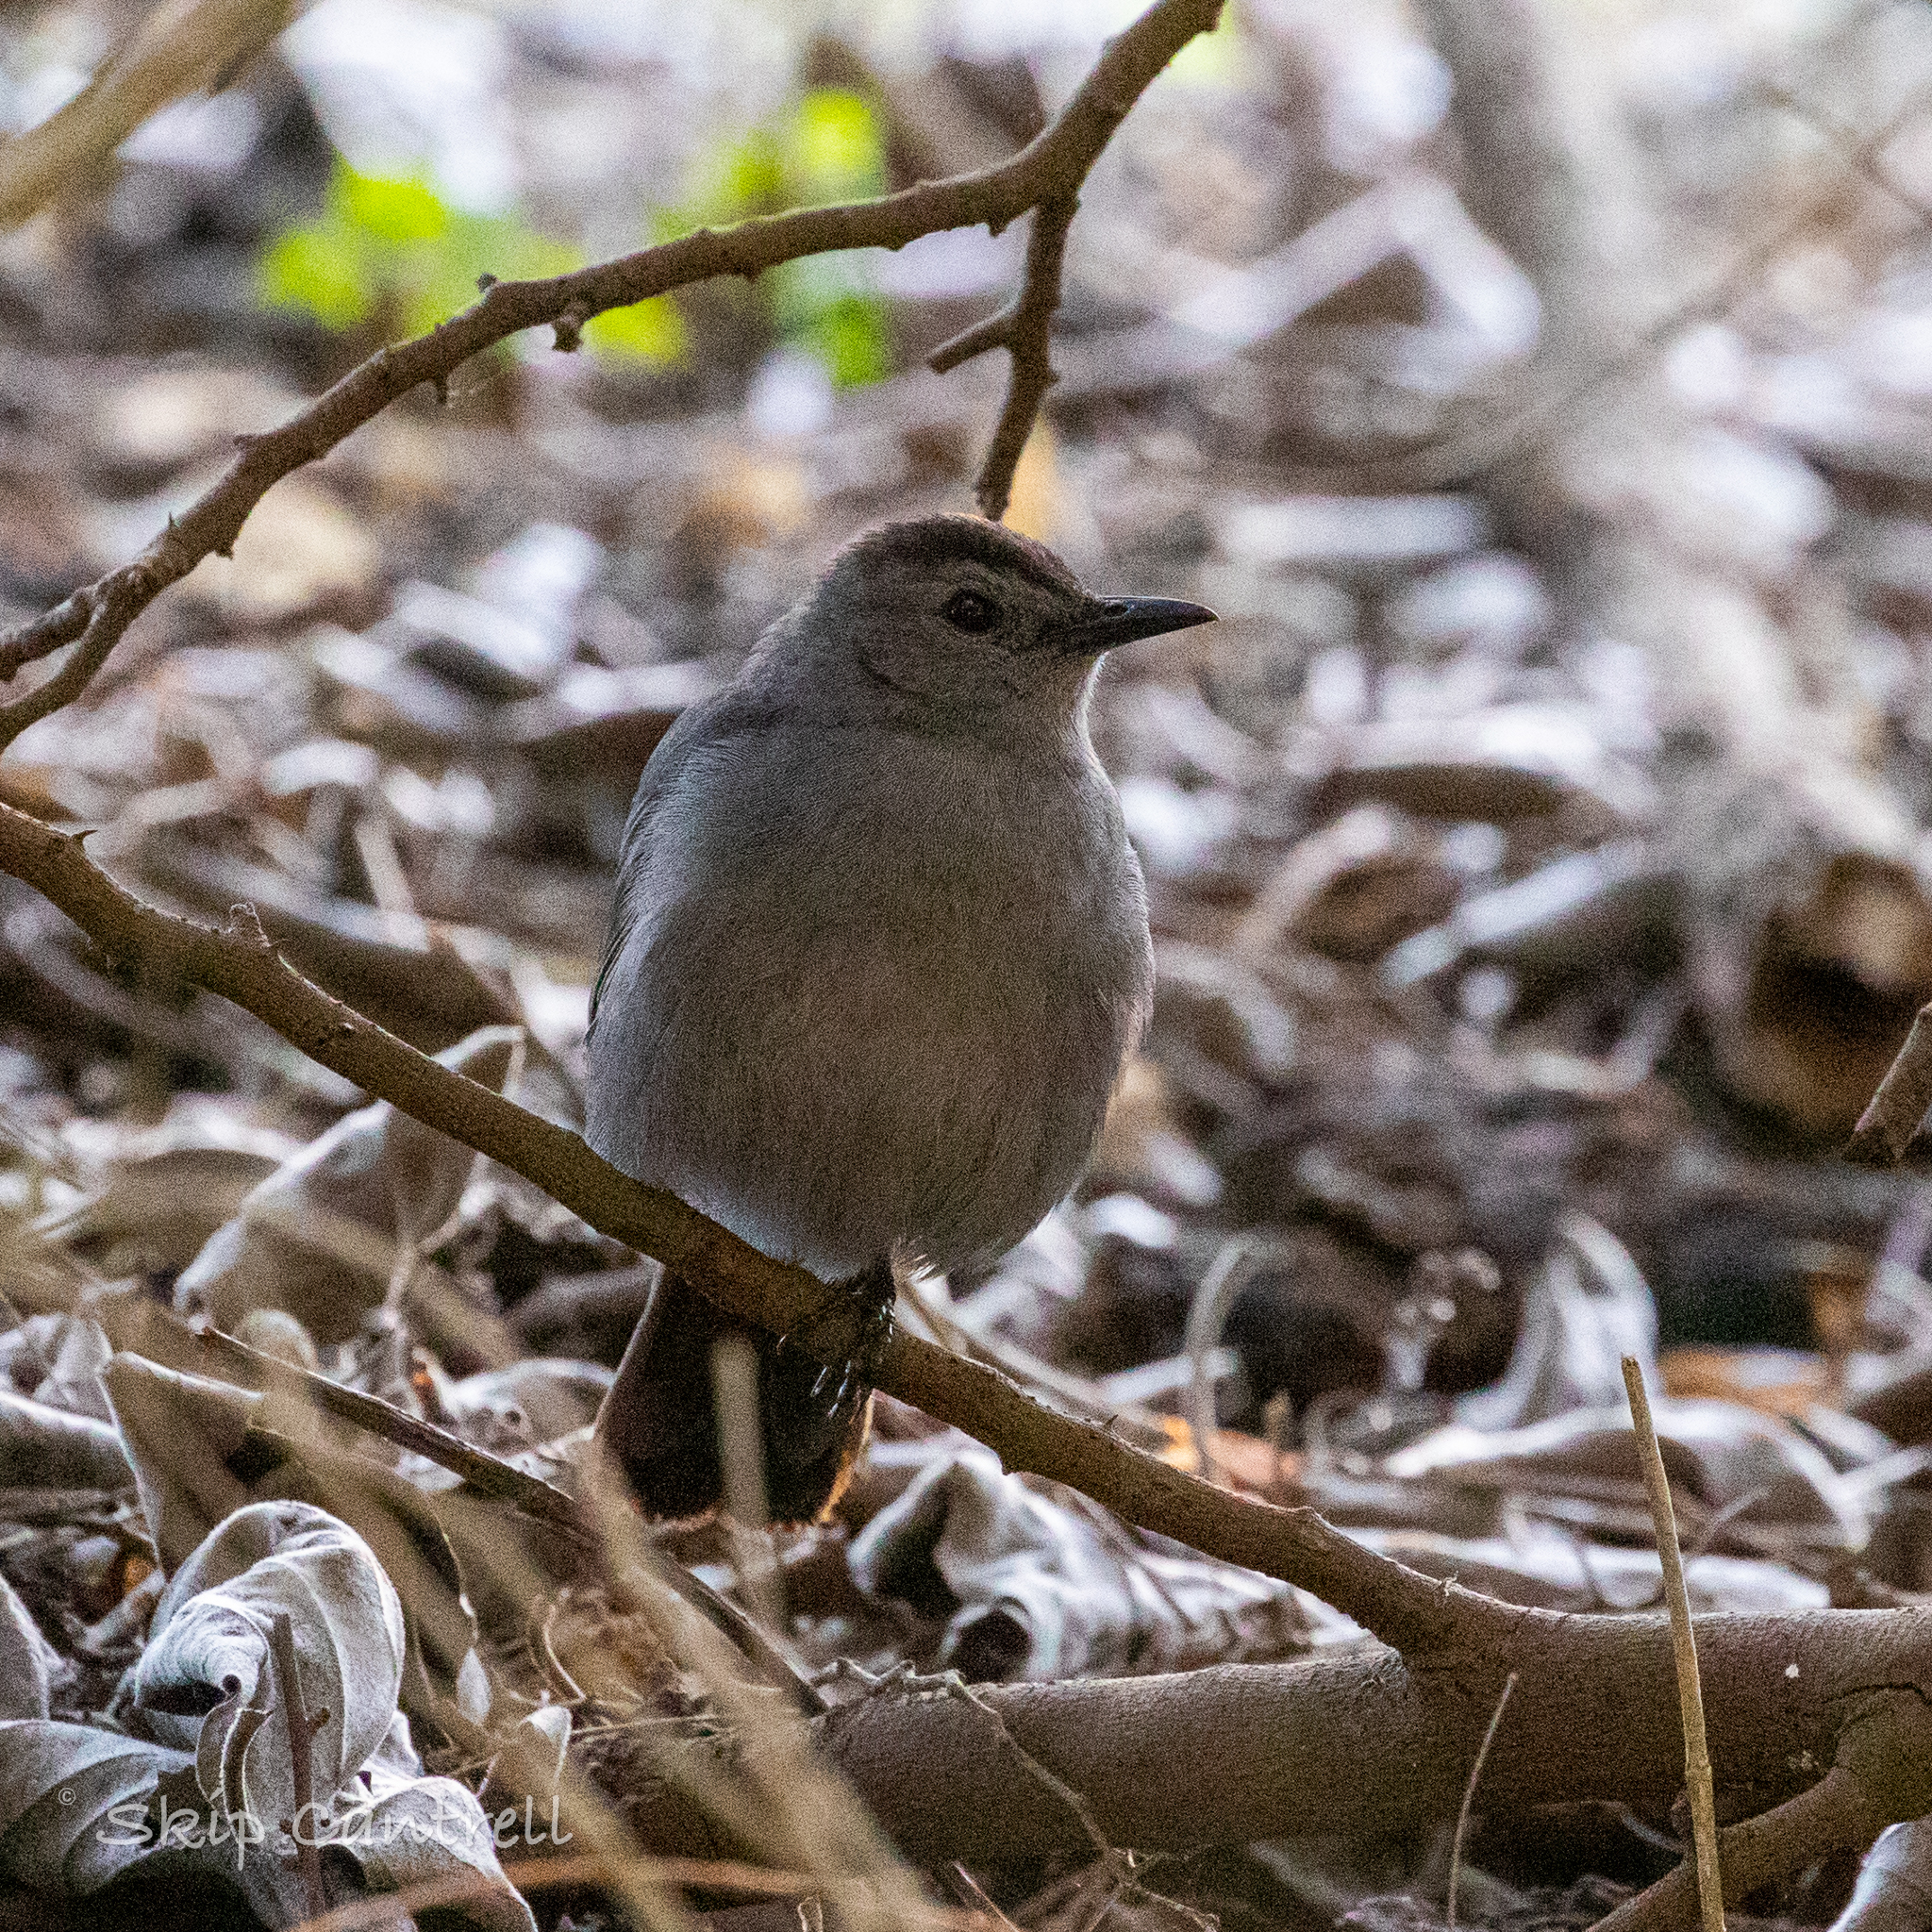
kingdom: Animalia
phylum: Chordata
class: Aves
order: Passeriformes
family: Mimidae
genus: Dumetella
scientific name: Dumetella carolinensis
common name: Gray catbird
